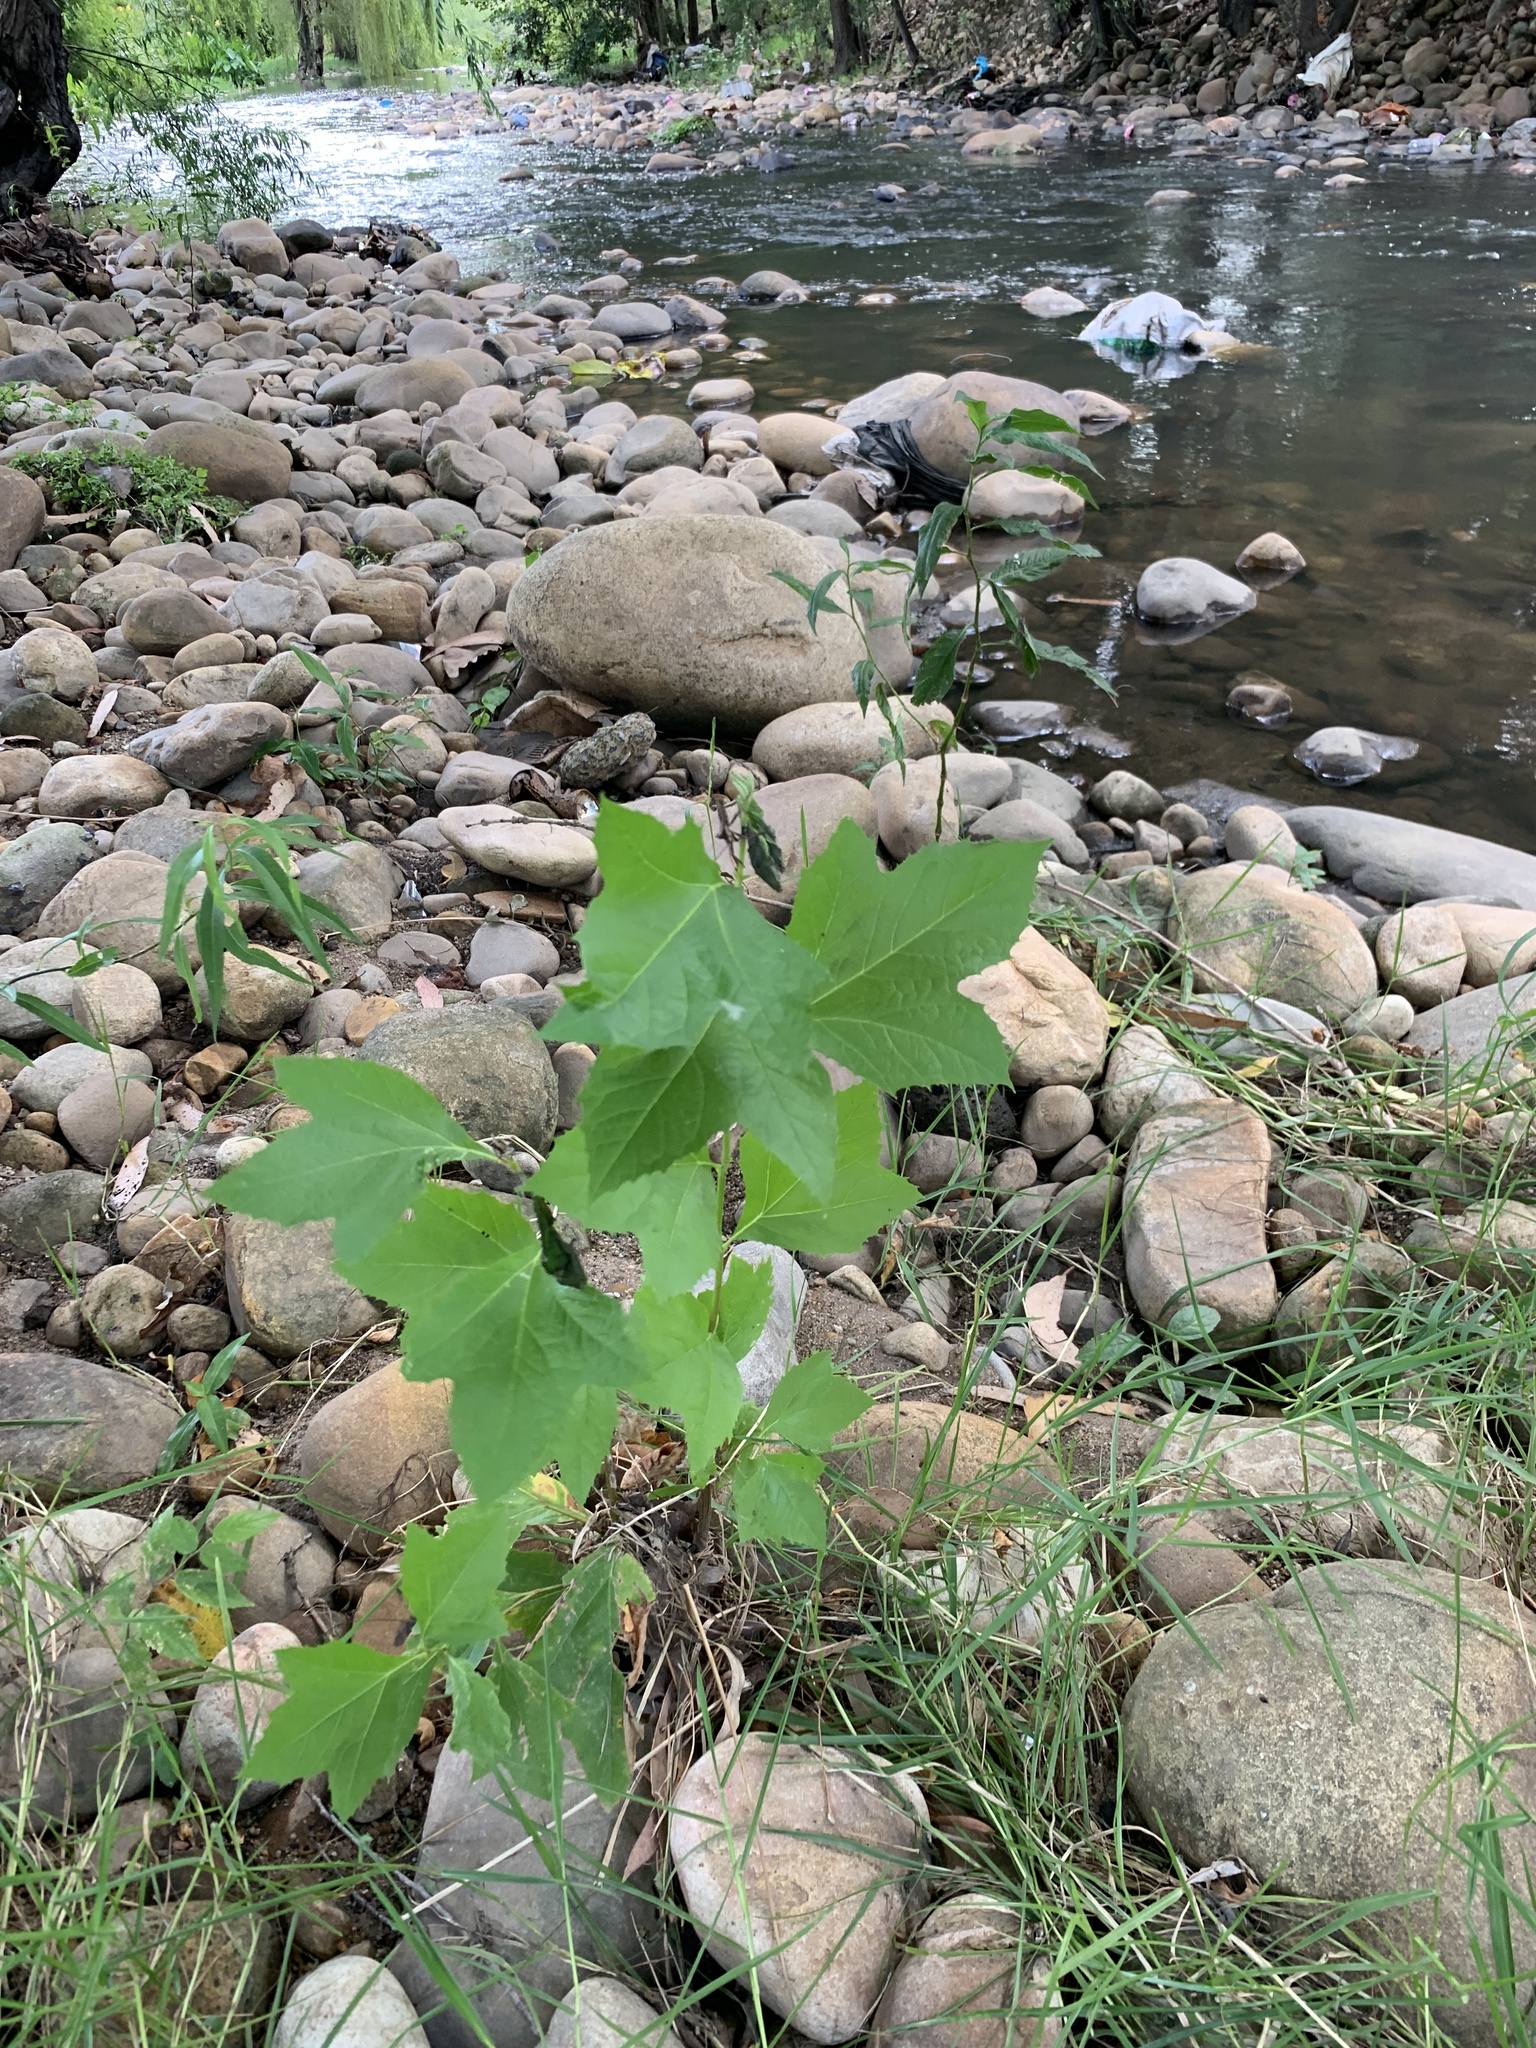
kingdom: Plantae
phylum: Tracheophyta
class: Magnoliopsida
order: Proteales
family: Platanaceae
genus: Platanus
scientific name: Platanus hispanica
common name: London plane
